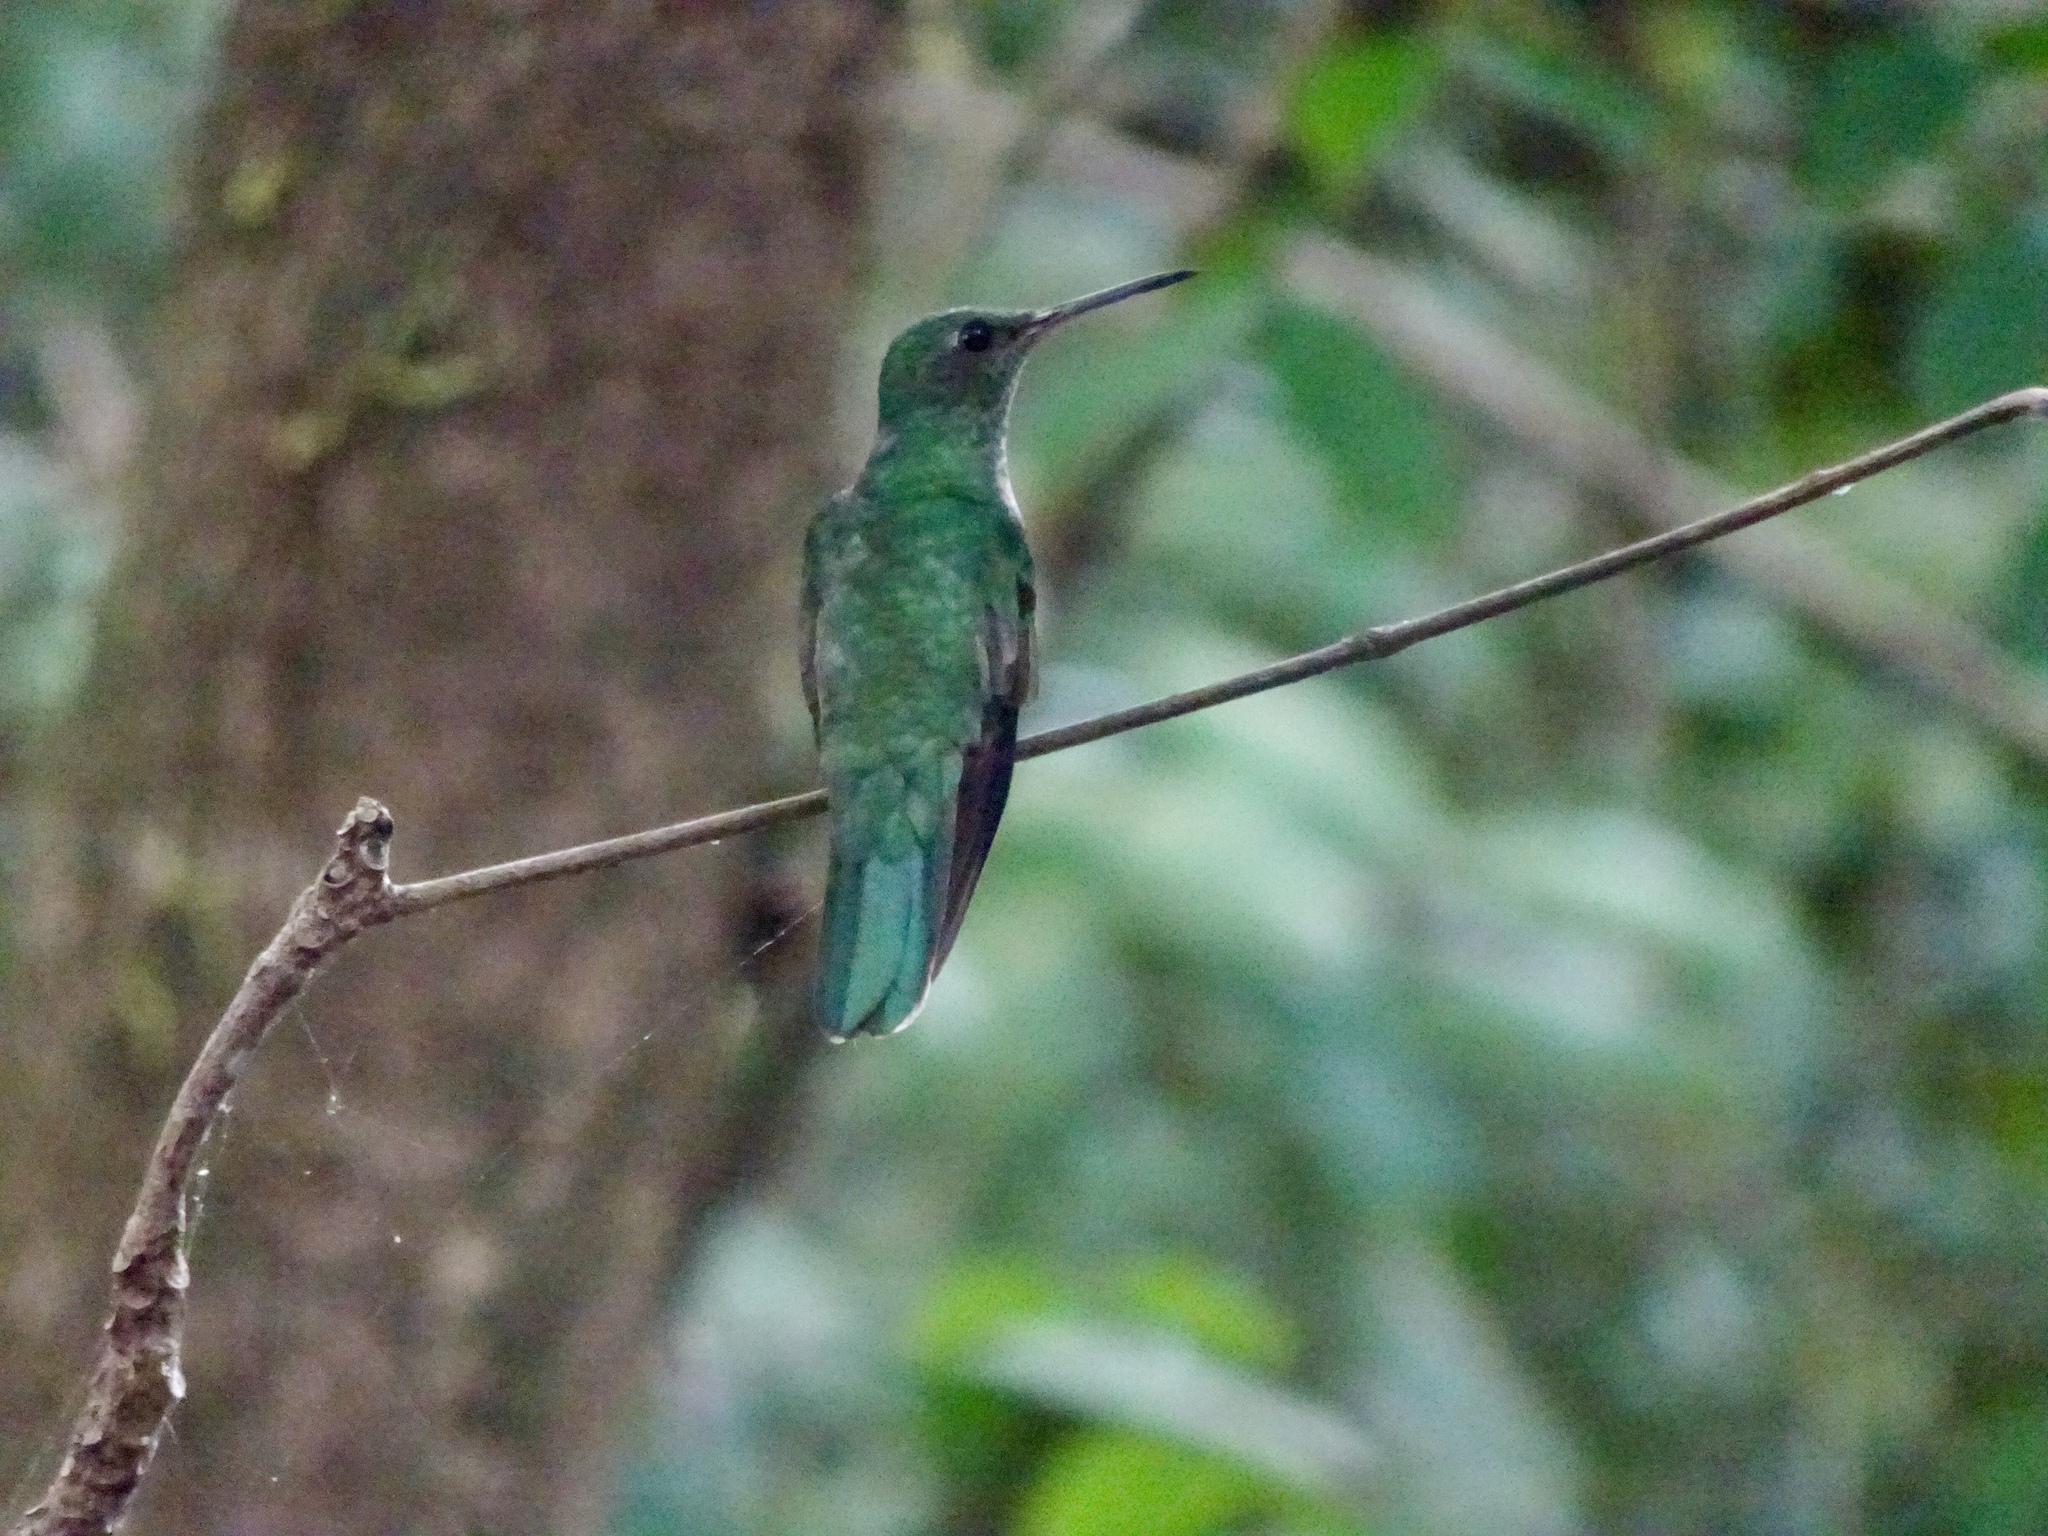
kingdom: Animalia
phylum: Chordata
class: Aves
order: Apodiformes
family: Trochilidae
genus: Phaeochroa
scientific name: Phaeochroa cuvierii
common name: Scaly-breasted hummingbird
